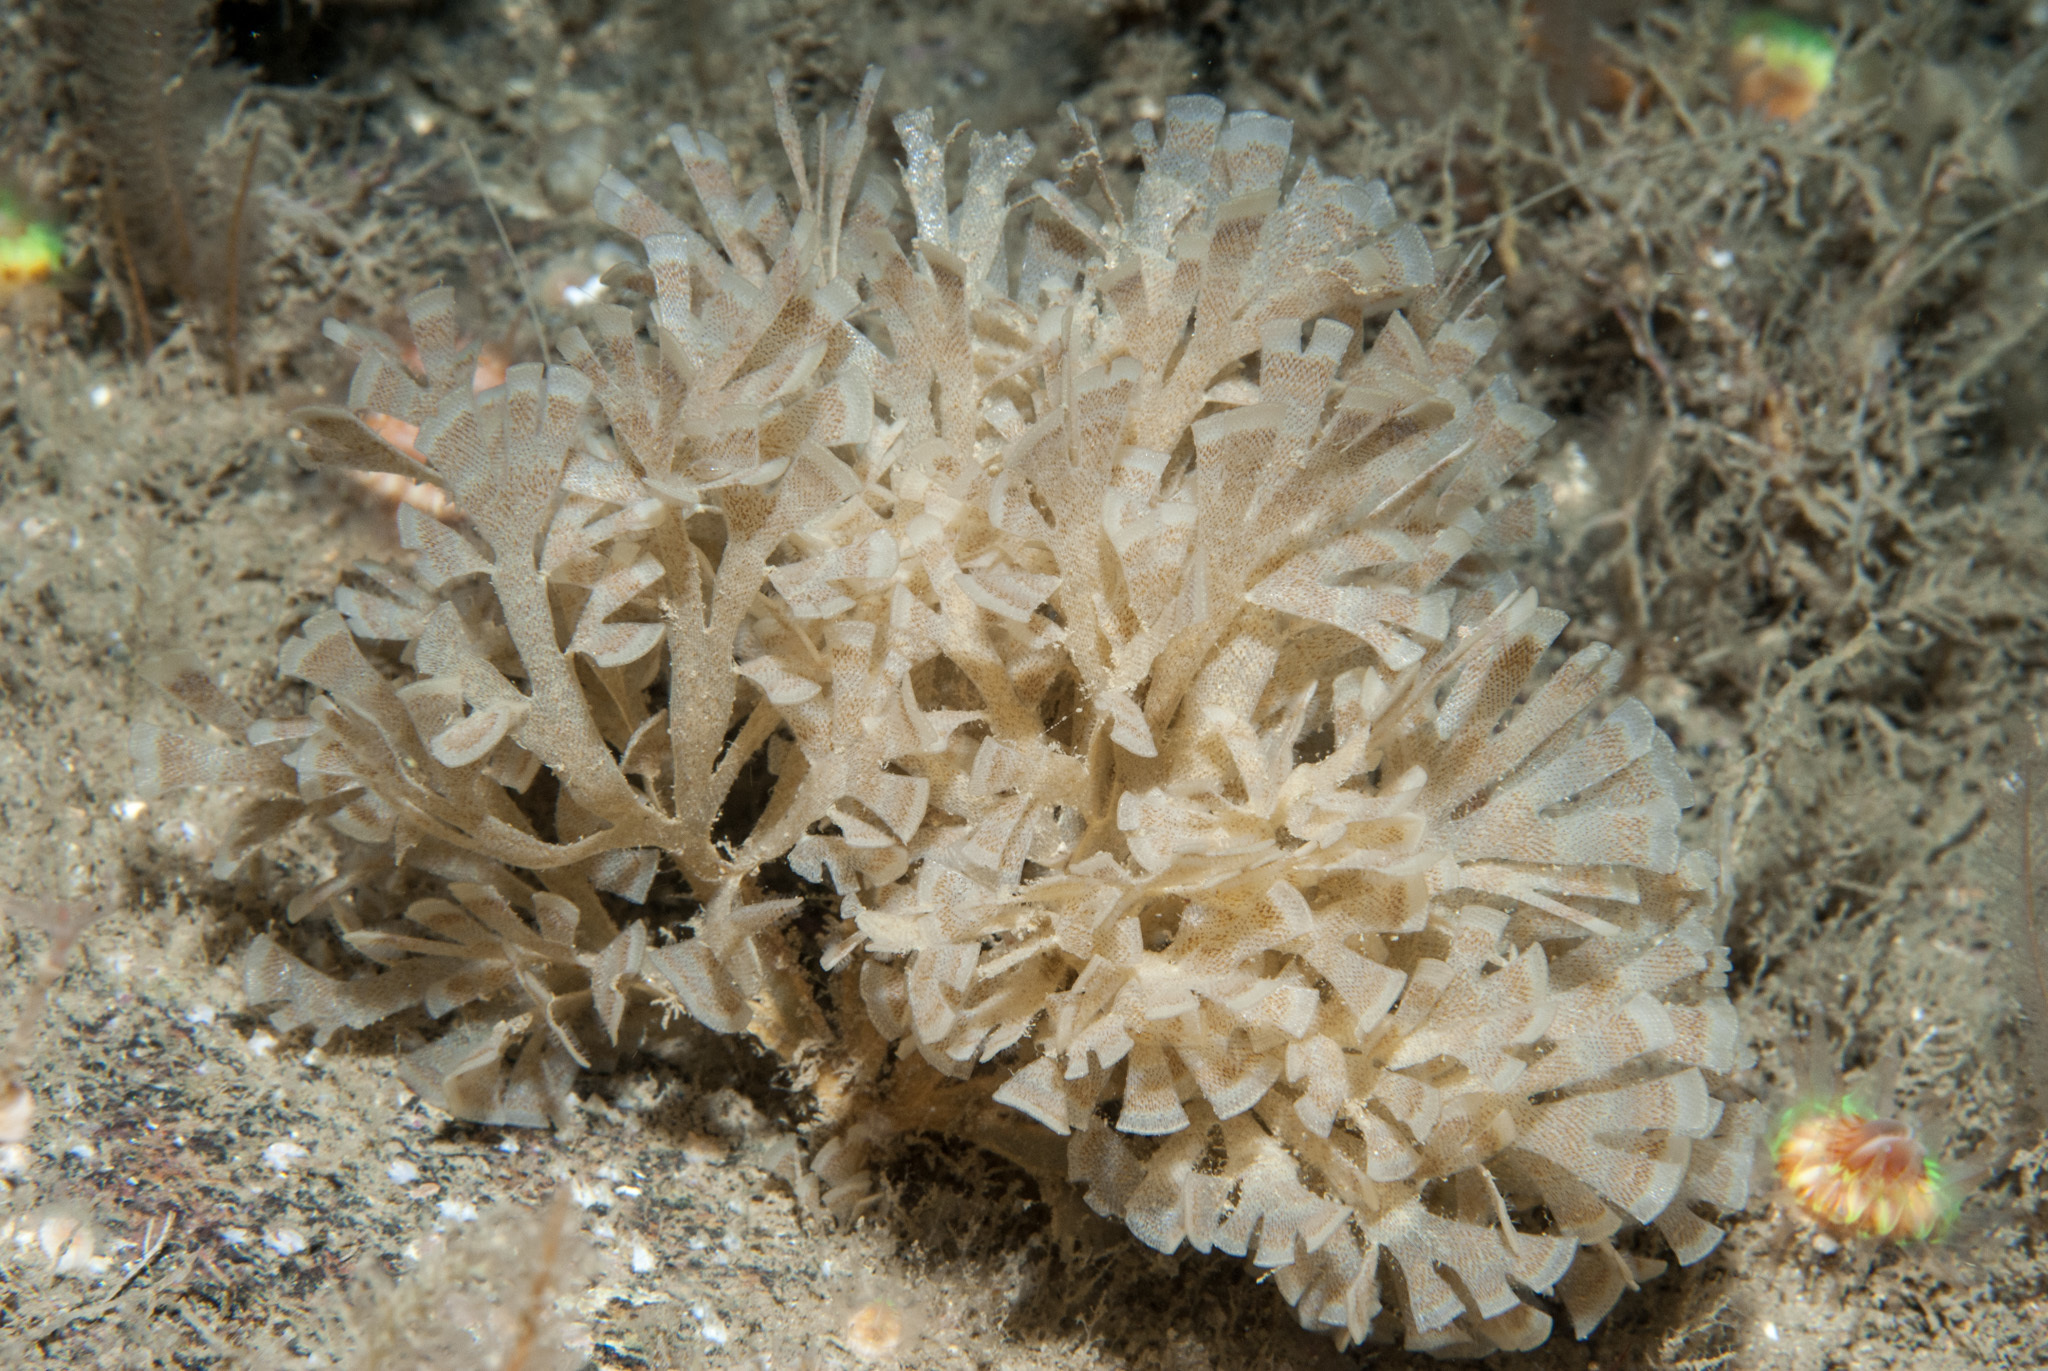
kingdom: Animalia
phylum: Bryozoa
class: Gymnolaemata
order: Cheilostomatida
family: Flustridae
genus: Securiflustra
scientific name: Securiflustra securifrons
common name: Narrow-leaved hornwrack
